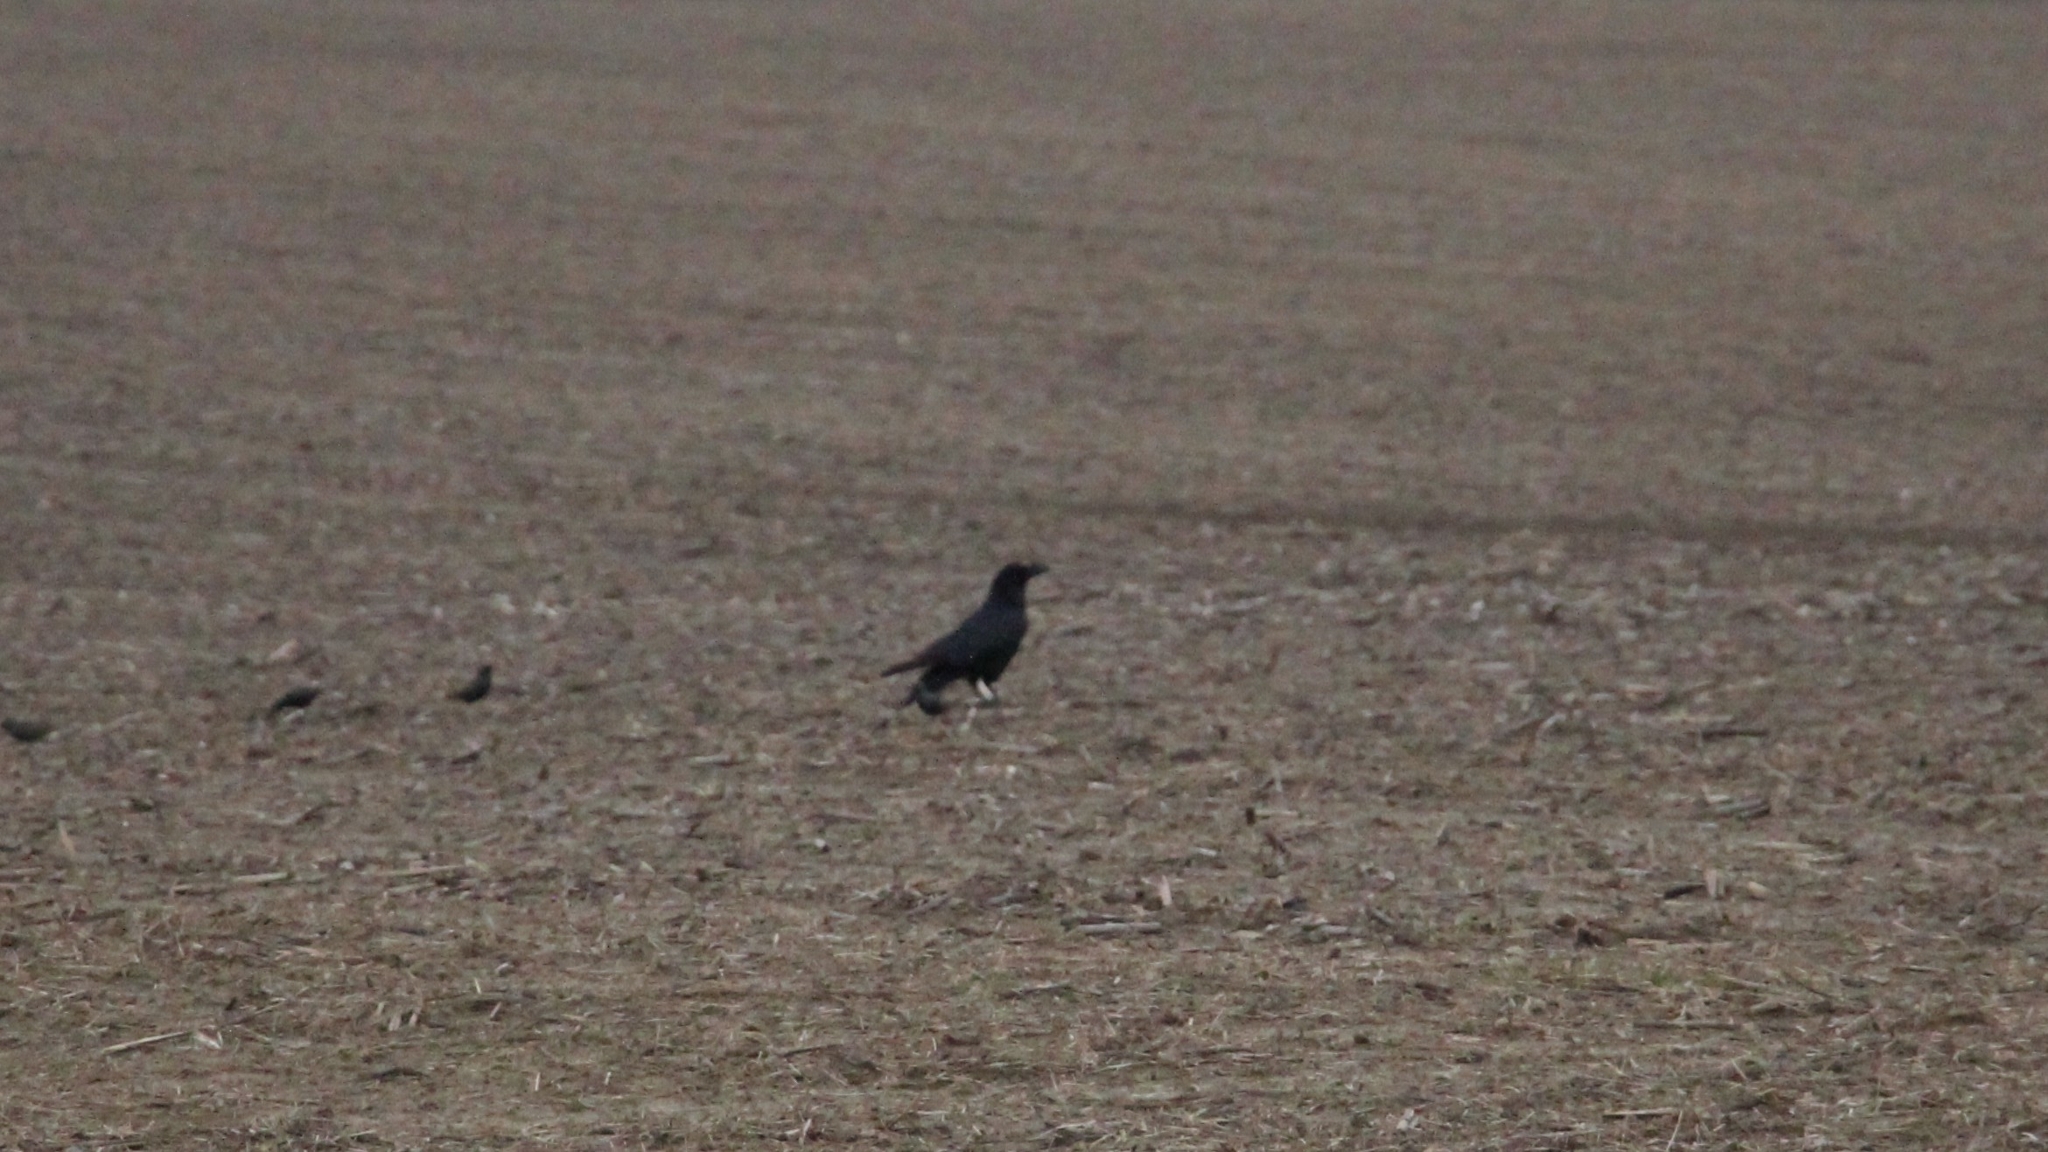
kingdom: Animalia
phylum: Chordata
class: Aves
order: Passeriformes
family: Corvidae
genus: Corvus
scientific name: Corvus corax
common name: Common raven
